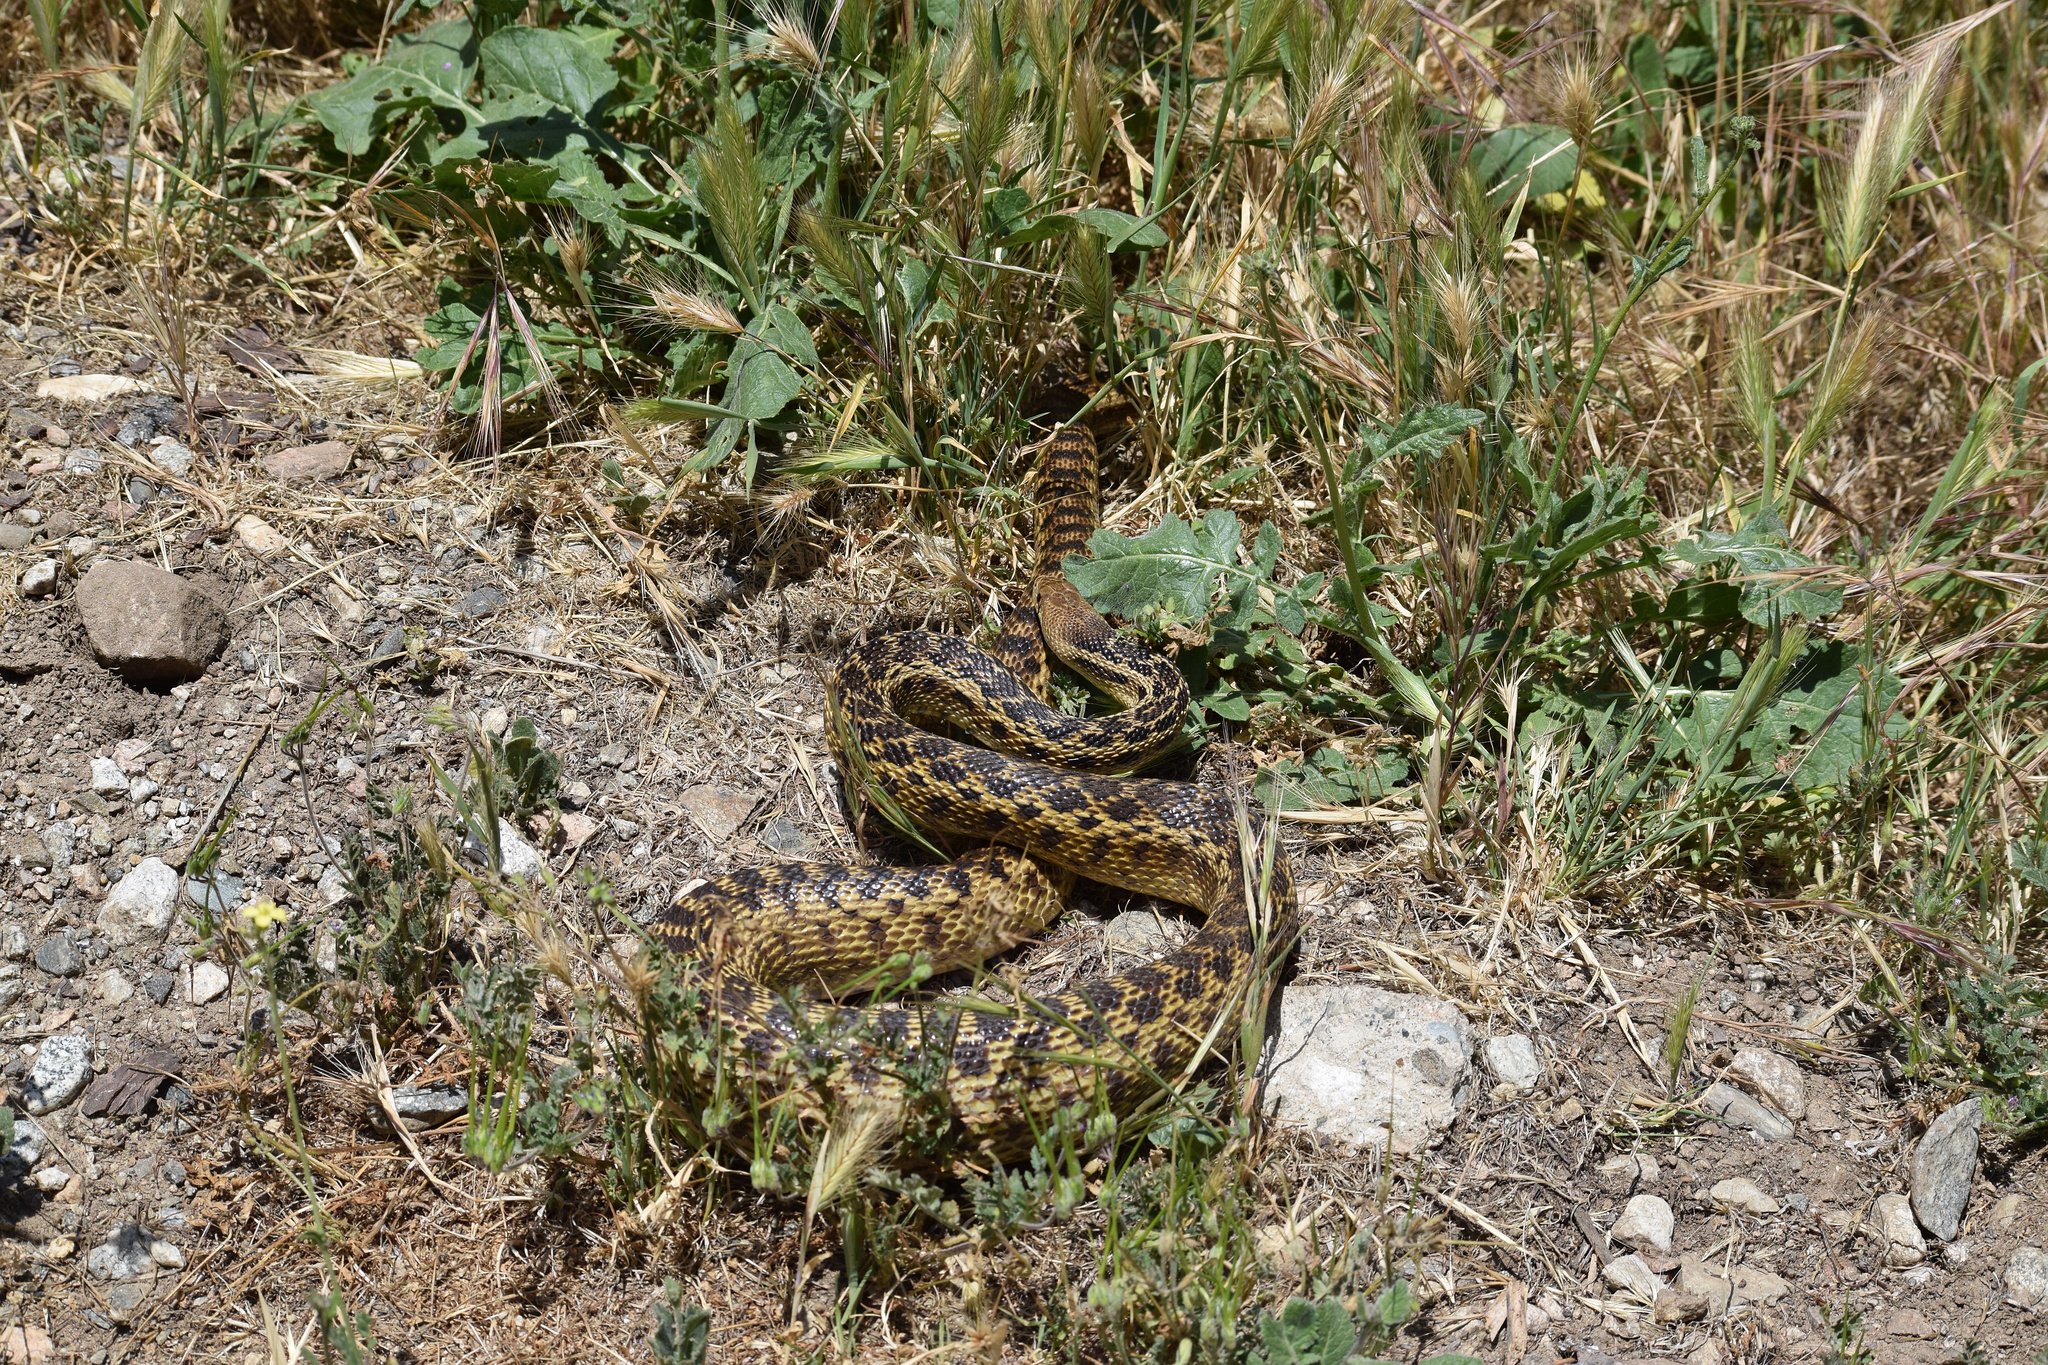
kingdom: Animalia
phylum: Chordata
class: Squamata
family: Colubridae
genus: Pituophis
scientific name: Pituophis catenifer
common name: Gopher snake
